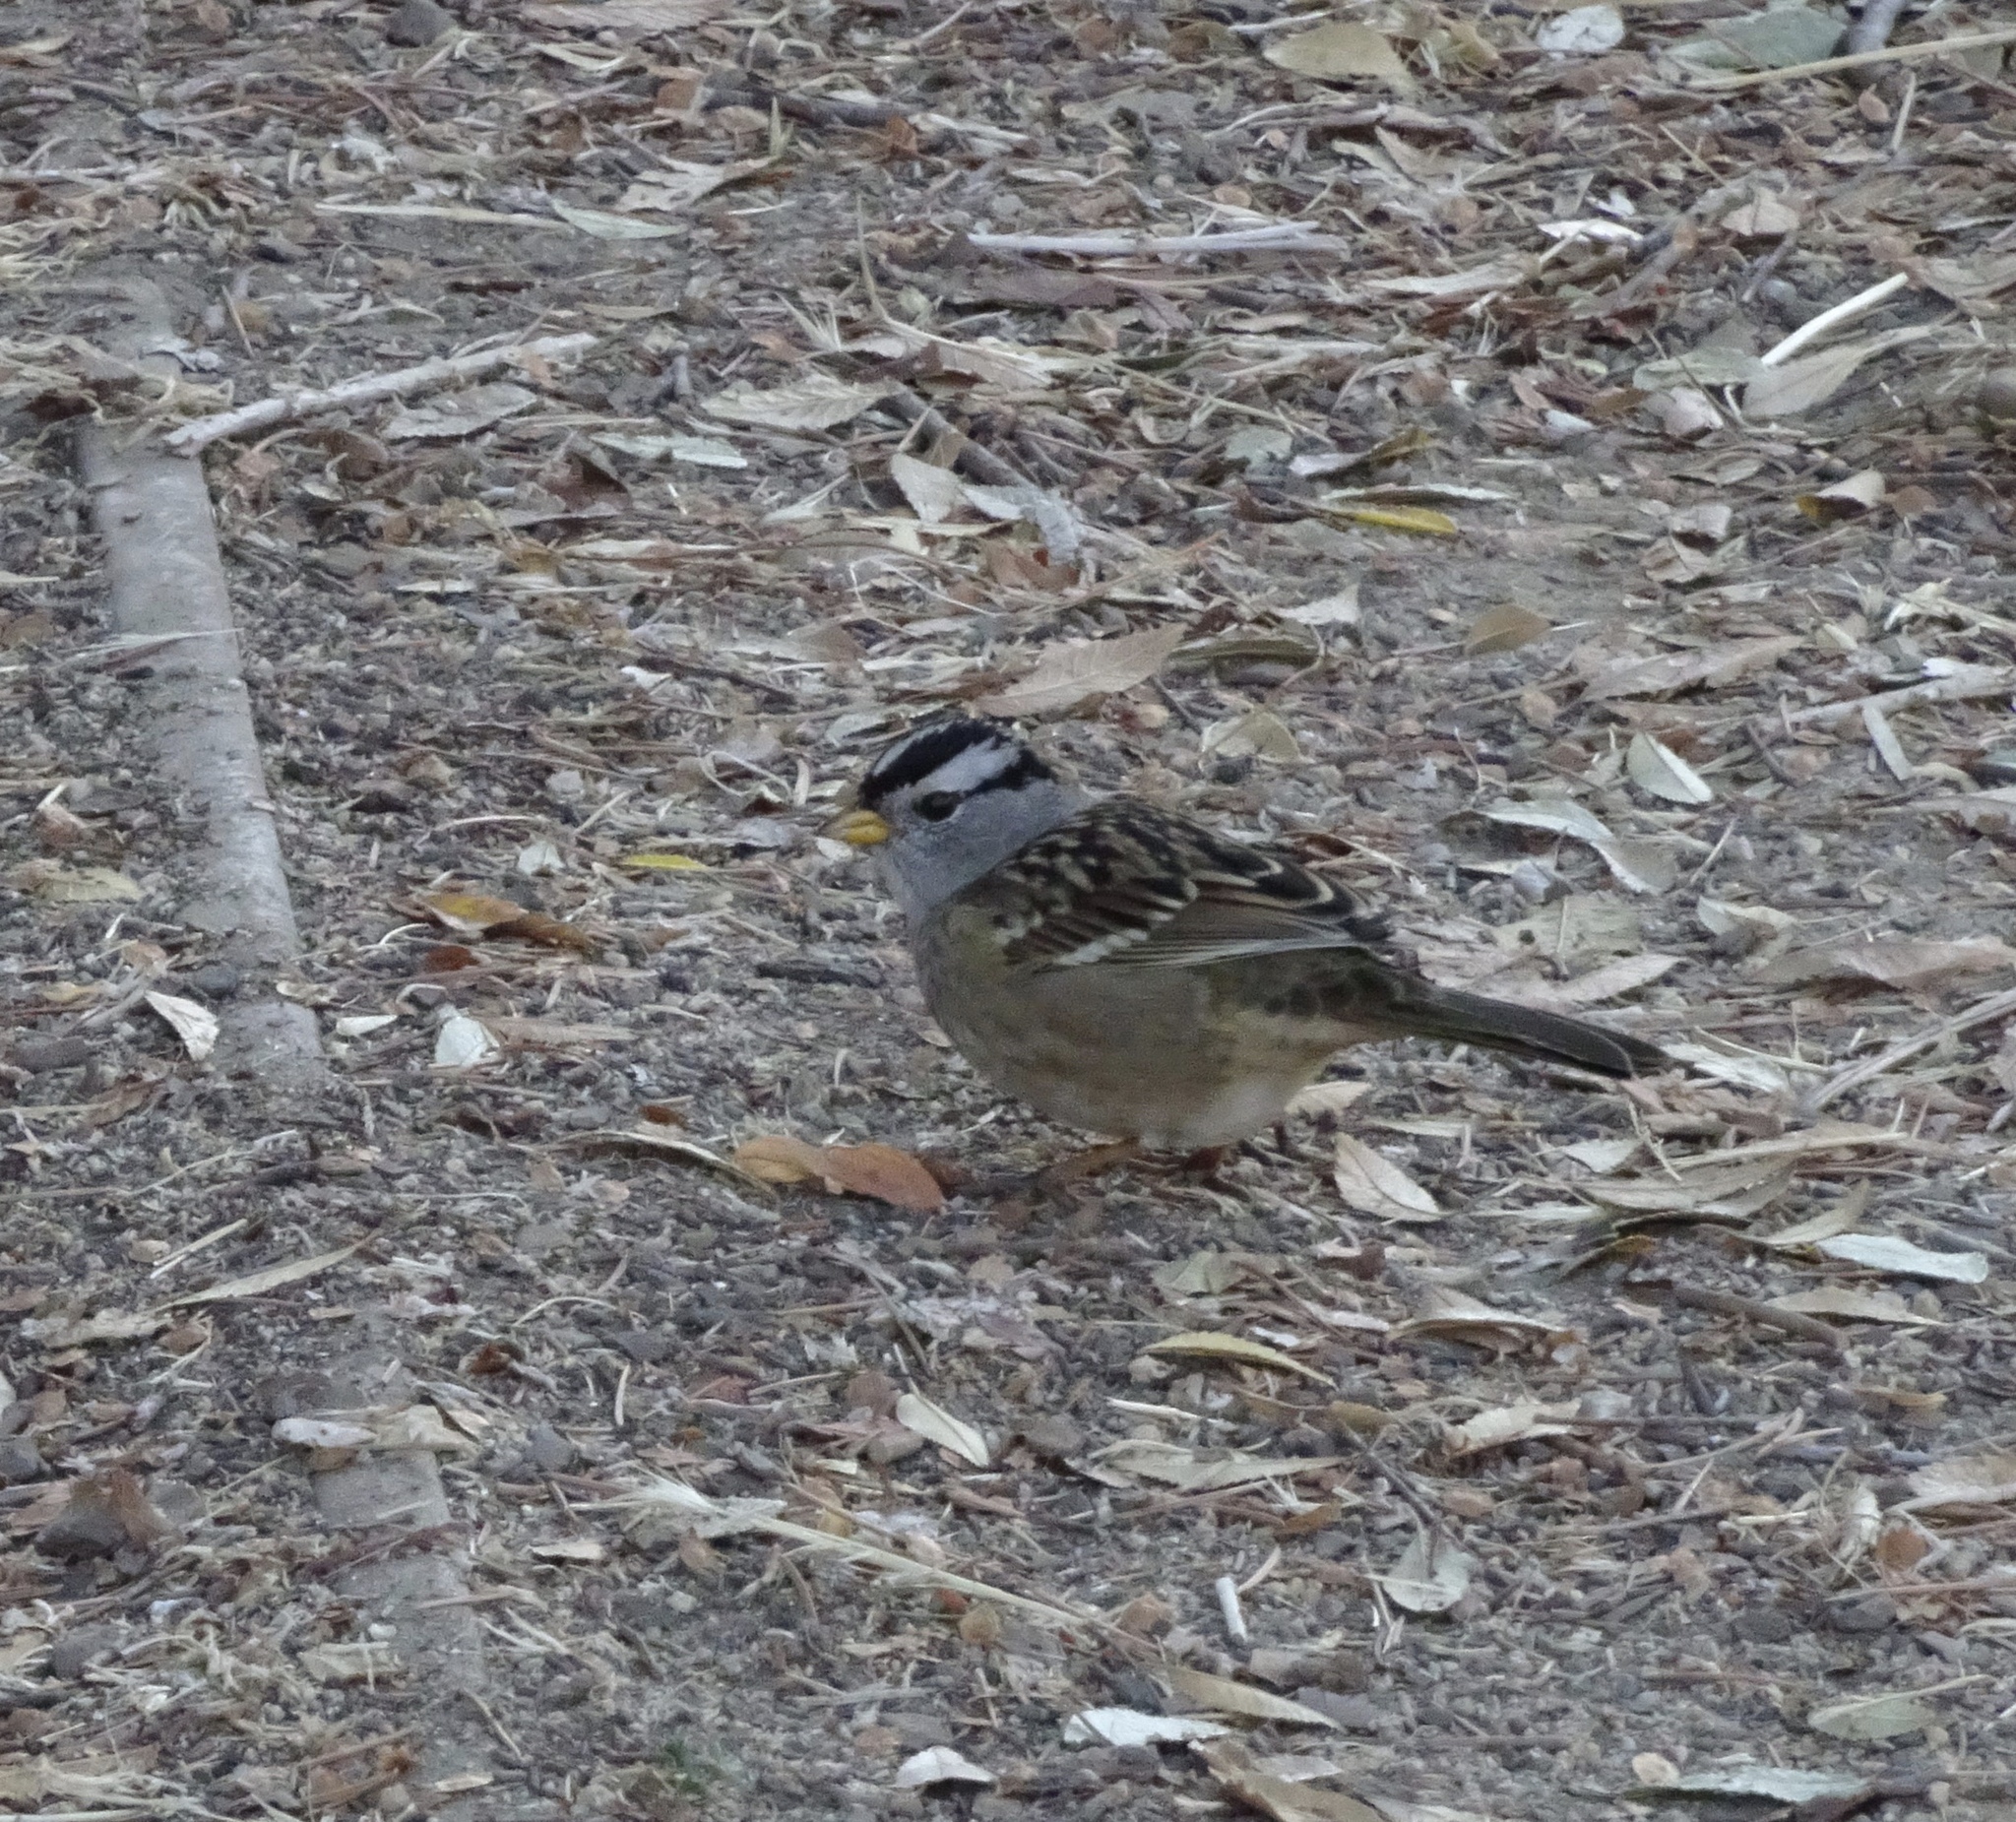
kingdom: Animalia
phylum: Chordata
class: Aves
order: Passeriformes
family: Passerellidae
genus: Zonotrichia
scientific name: Zonotrichia leucophrys
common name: White-crowned sparrow
